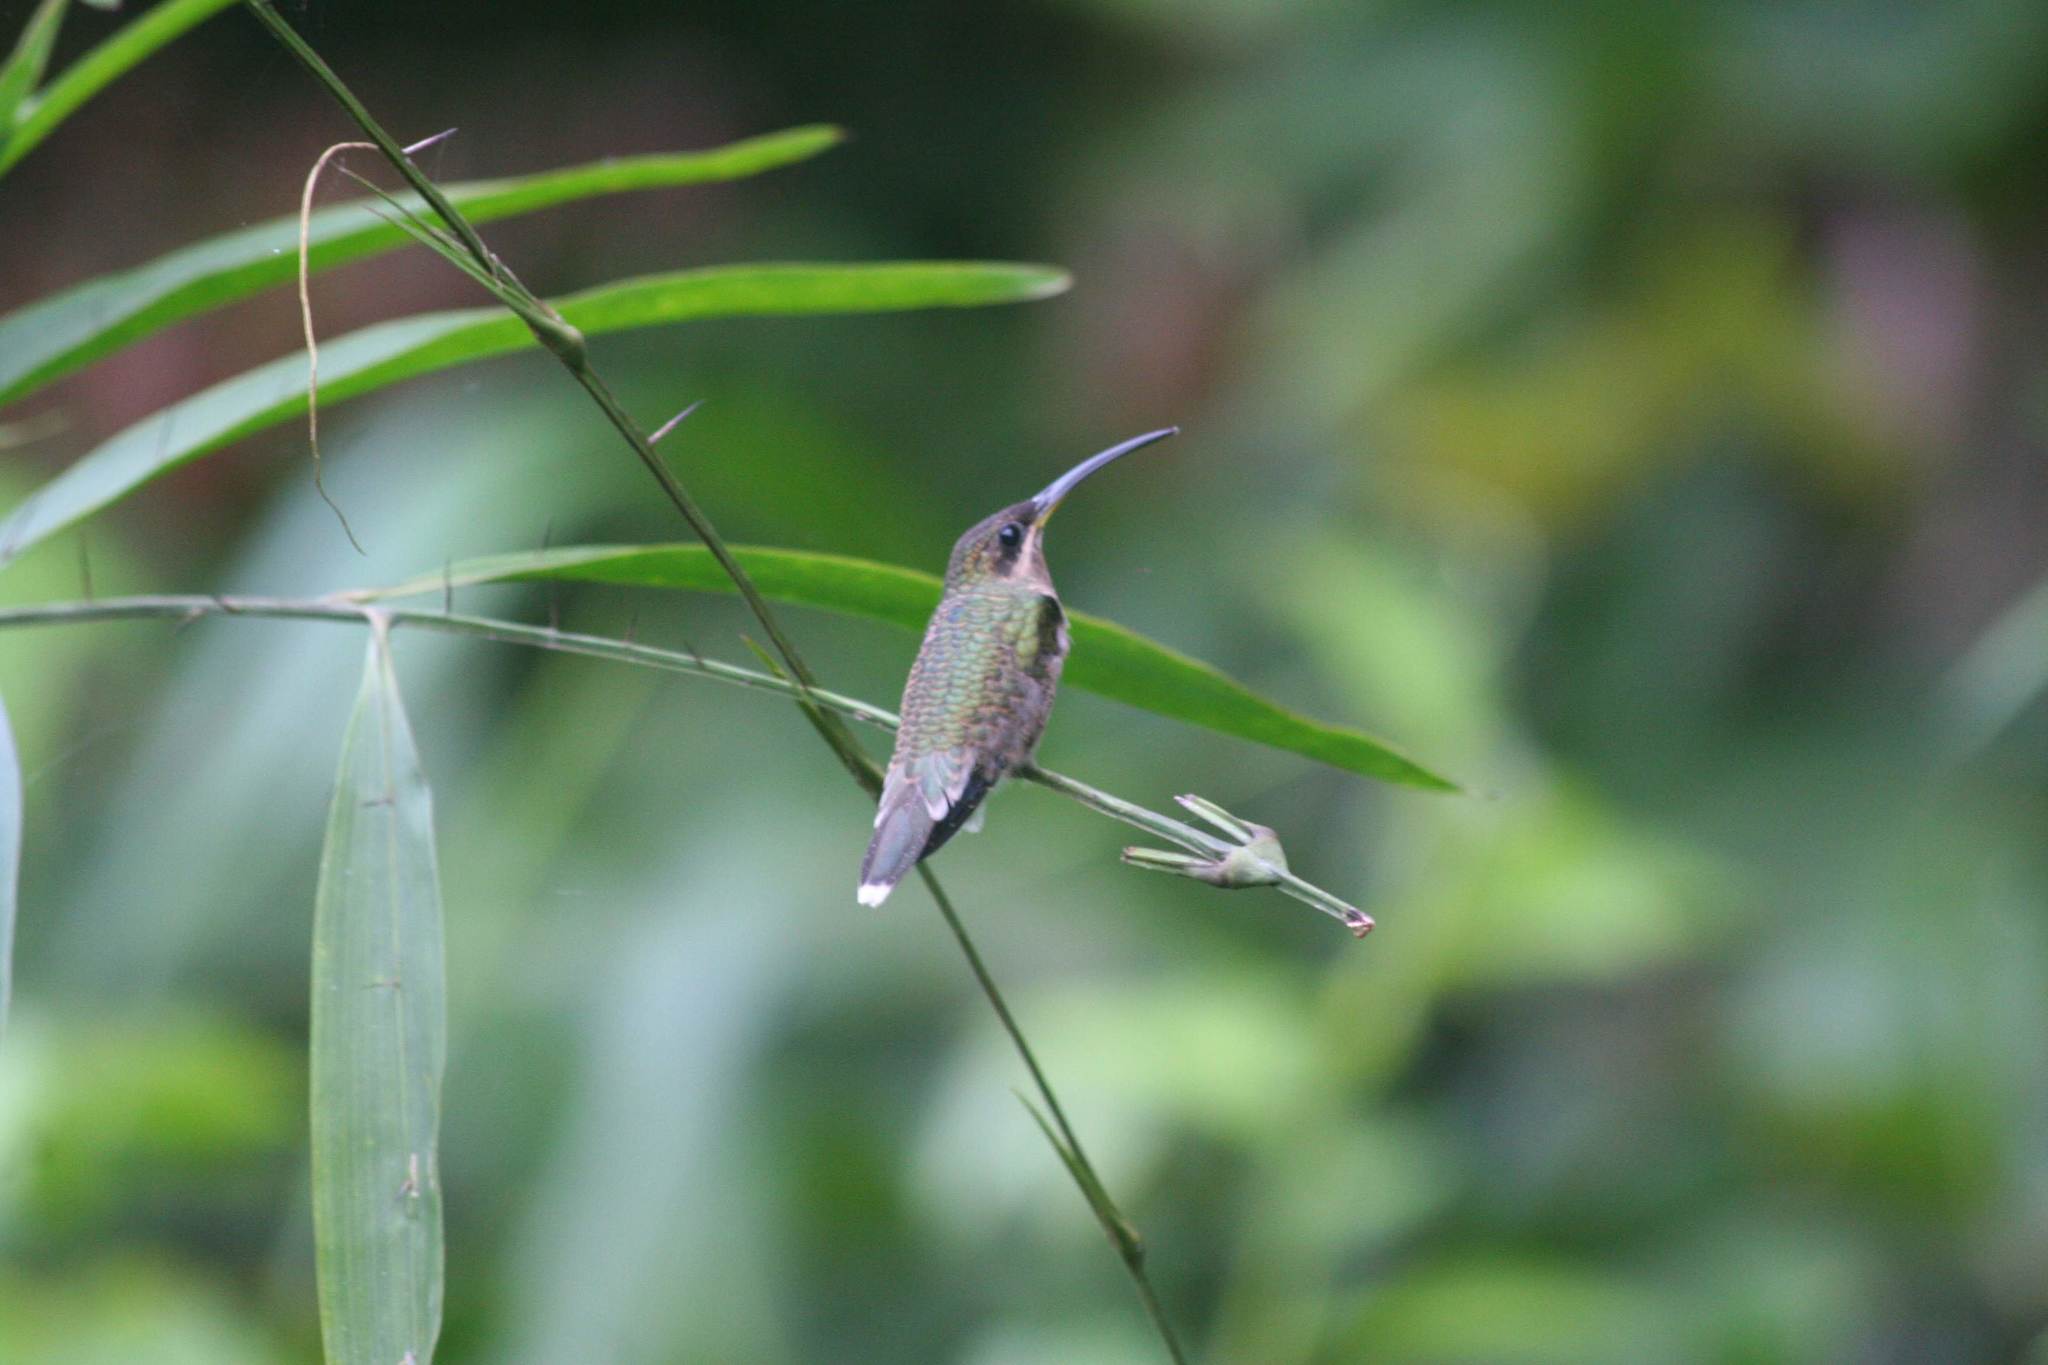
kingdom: Animalia
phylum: Chordata
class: Aves
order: Apodiformes
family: Trochilidae
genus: Threnetes
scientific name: Threnetes leucurus
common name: Pale-tailed barbthroat
